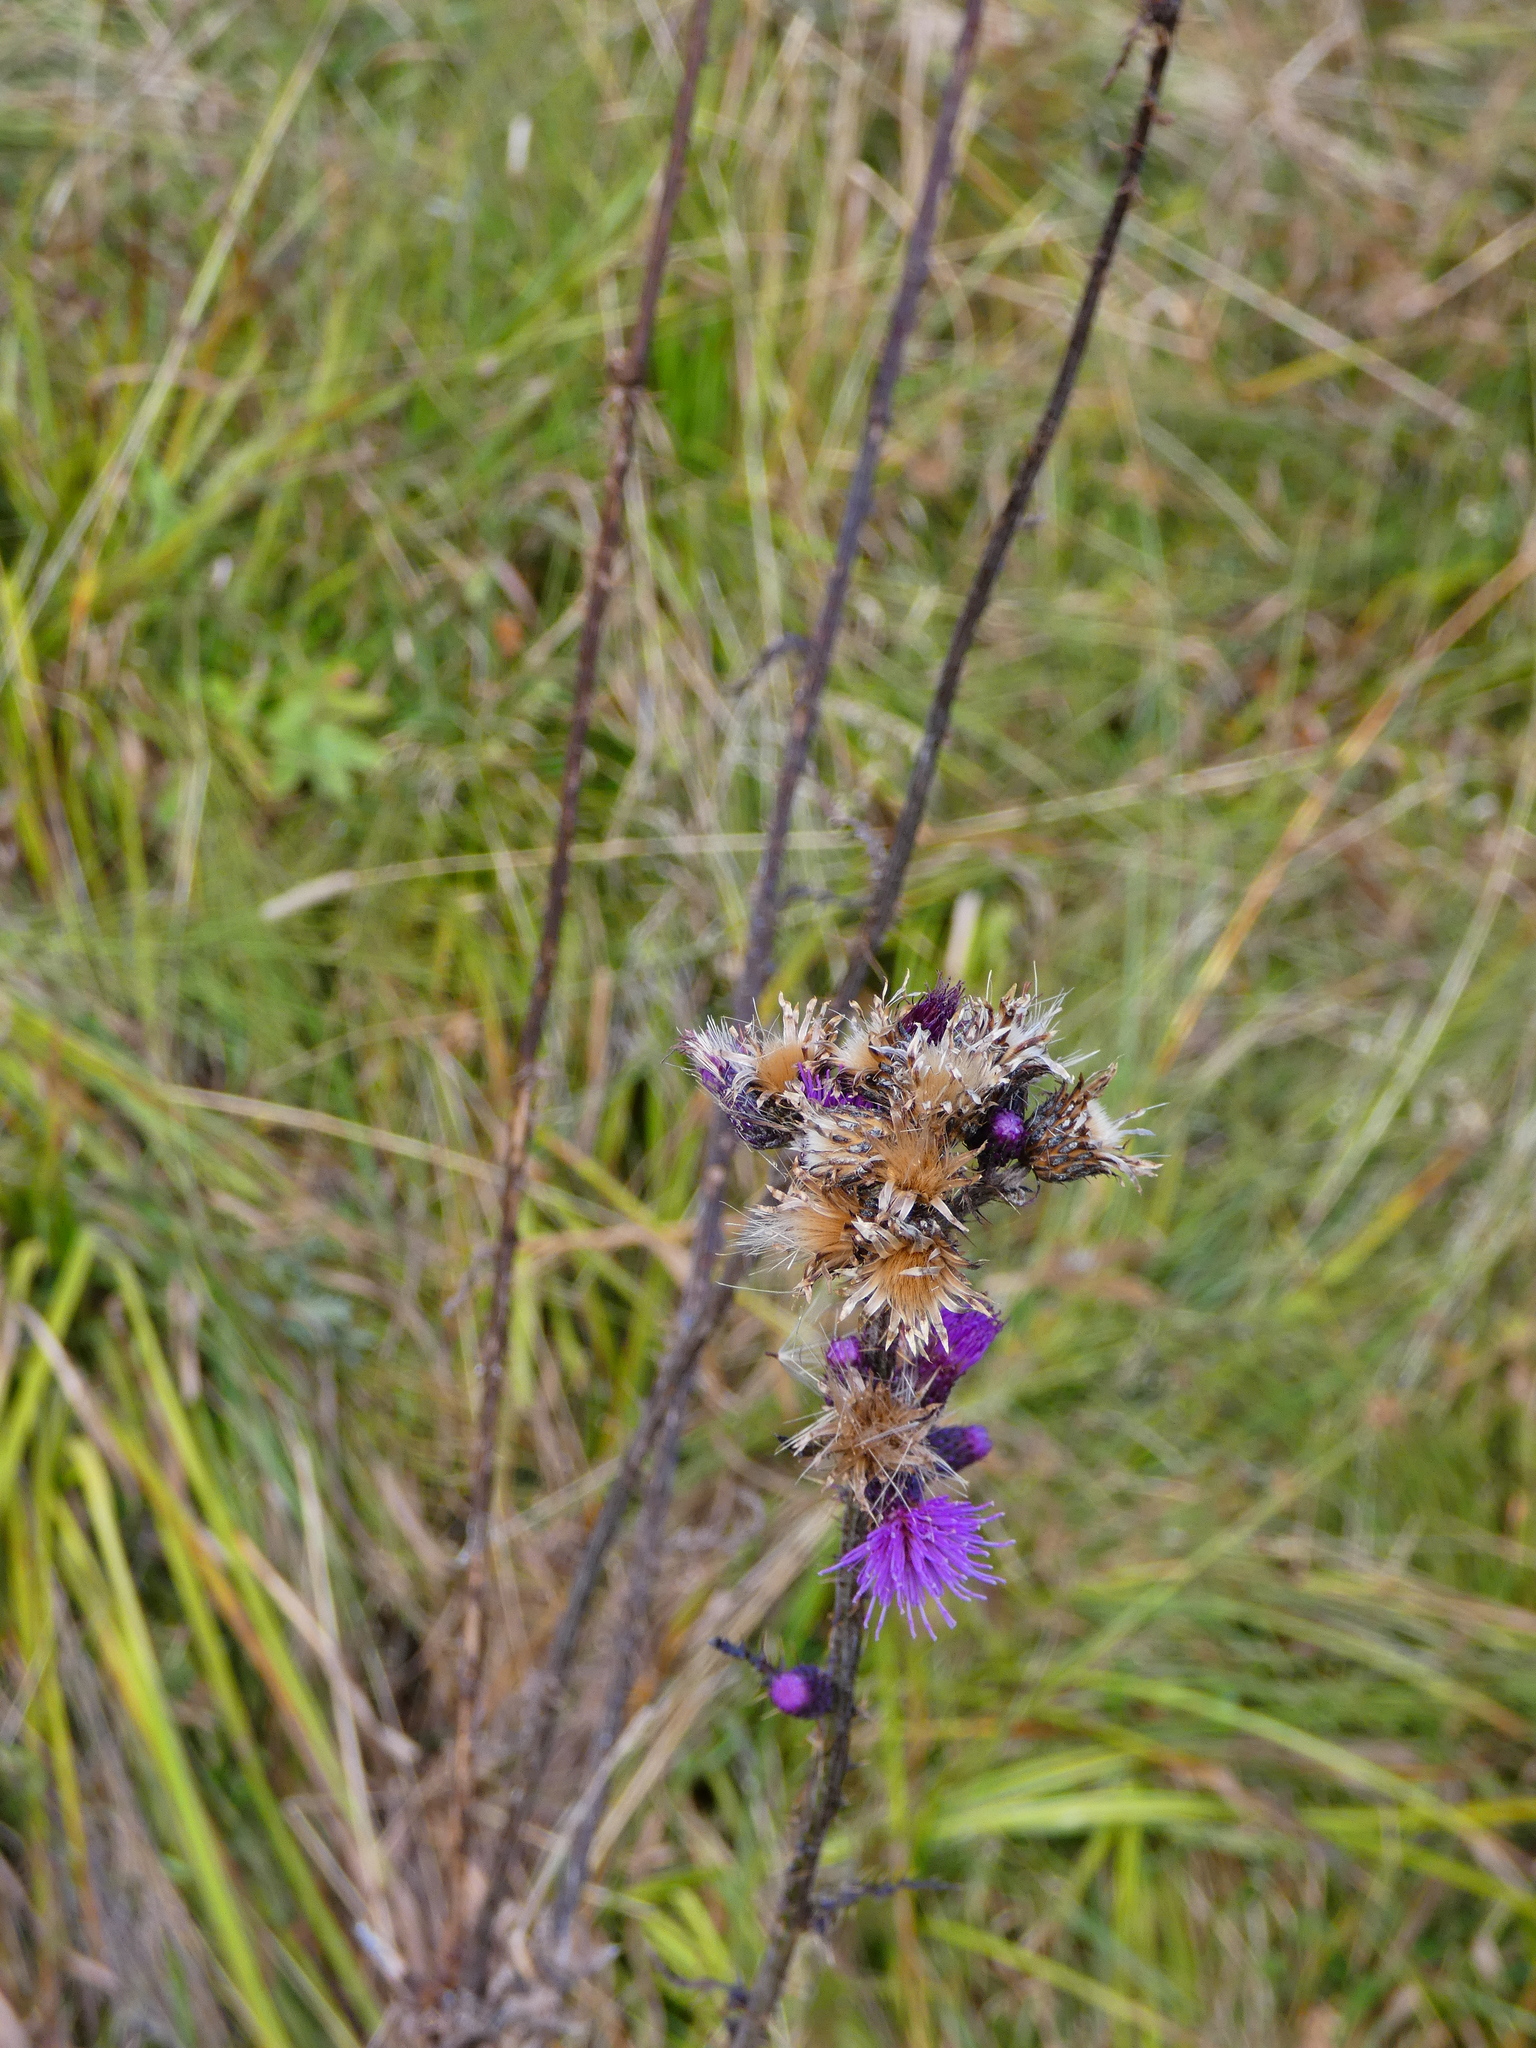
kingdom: Plantae
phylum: Tracheophyta
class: Magnoliopsida
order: Asterales
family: Asteraceae
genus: Cirsium
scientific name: Cirsium palustre
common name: Marsh thistle
